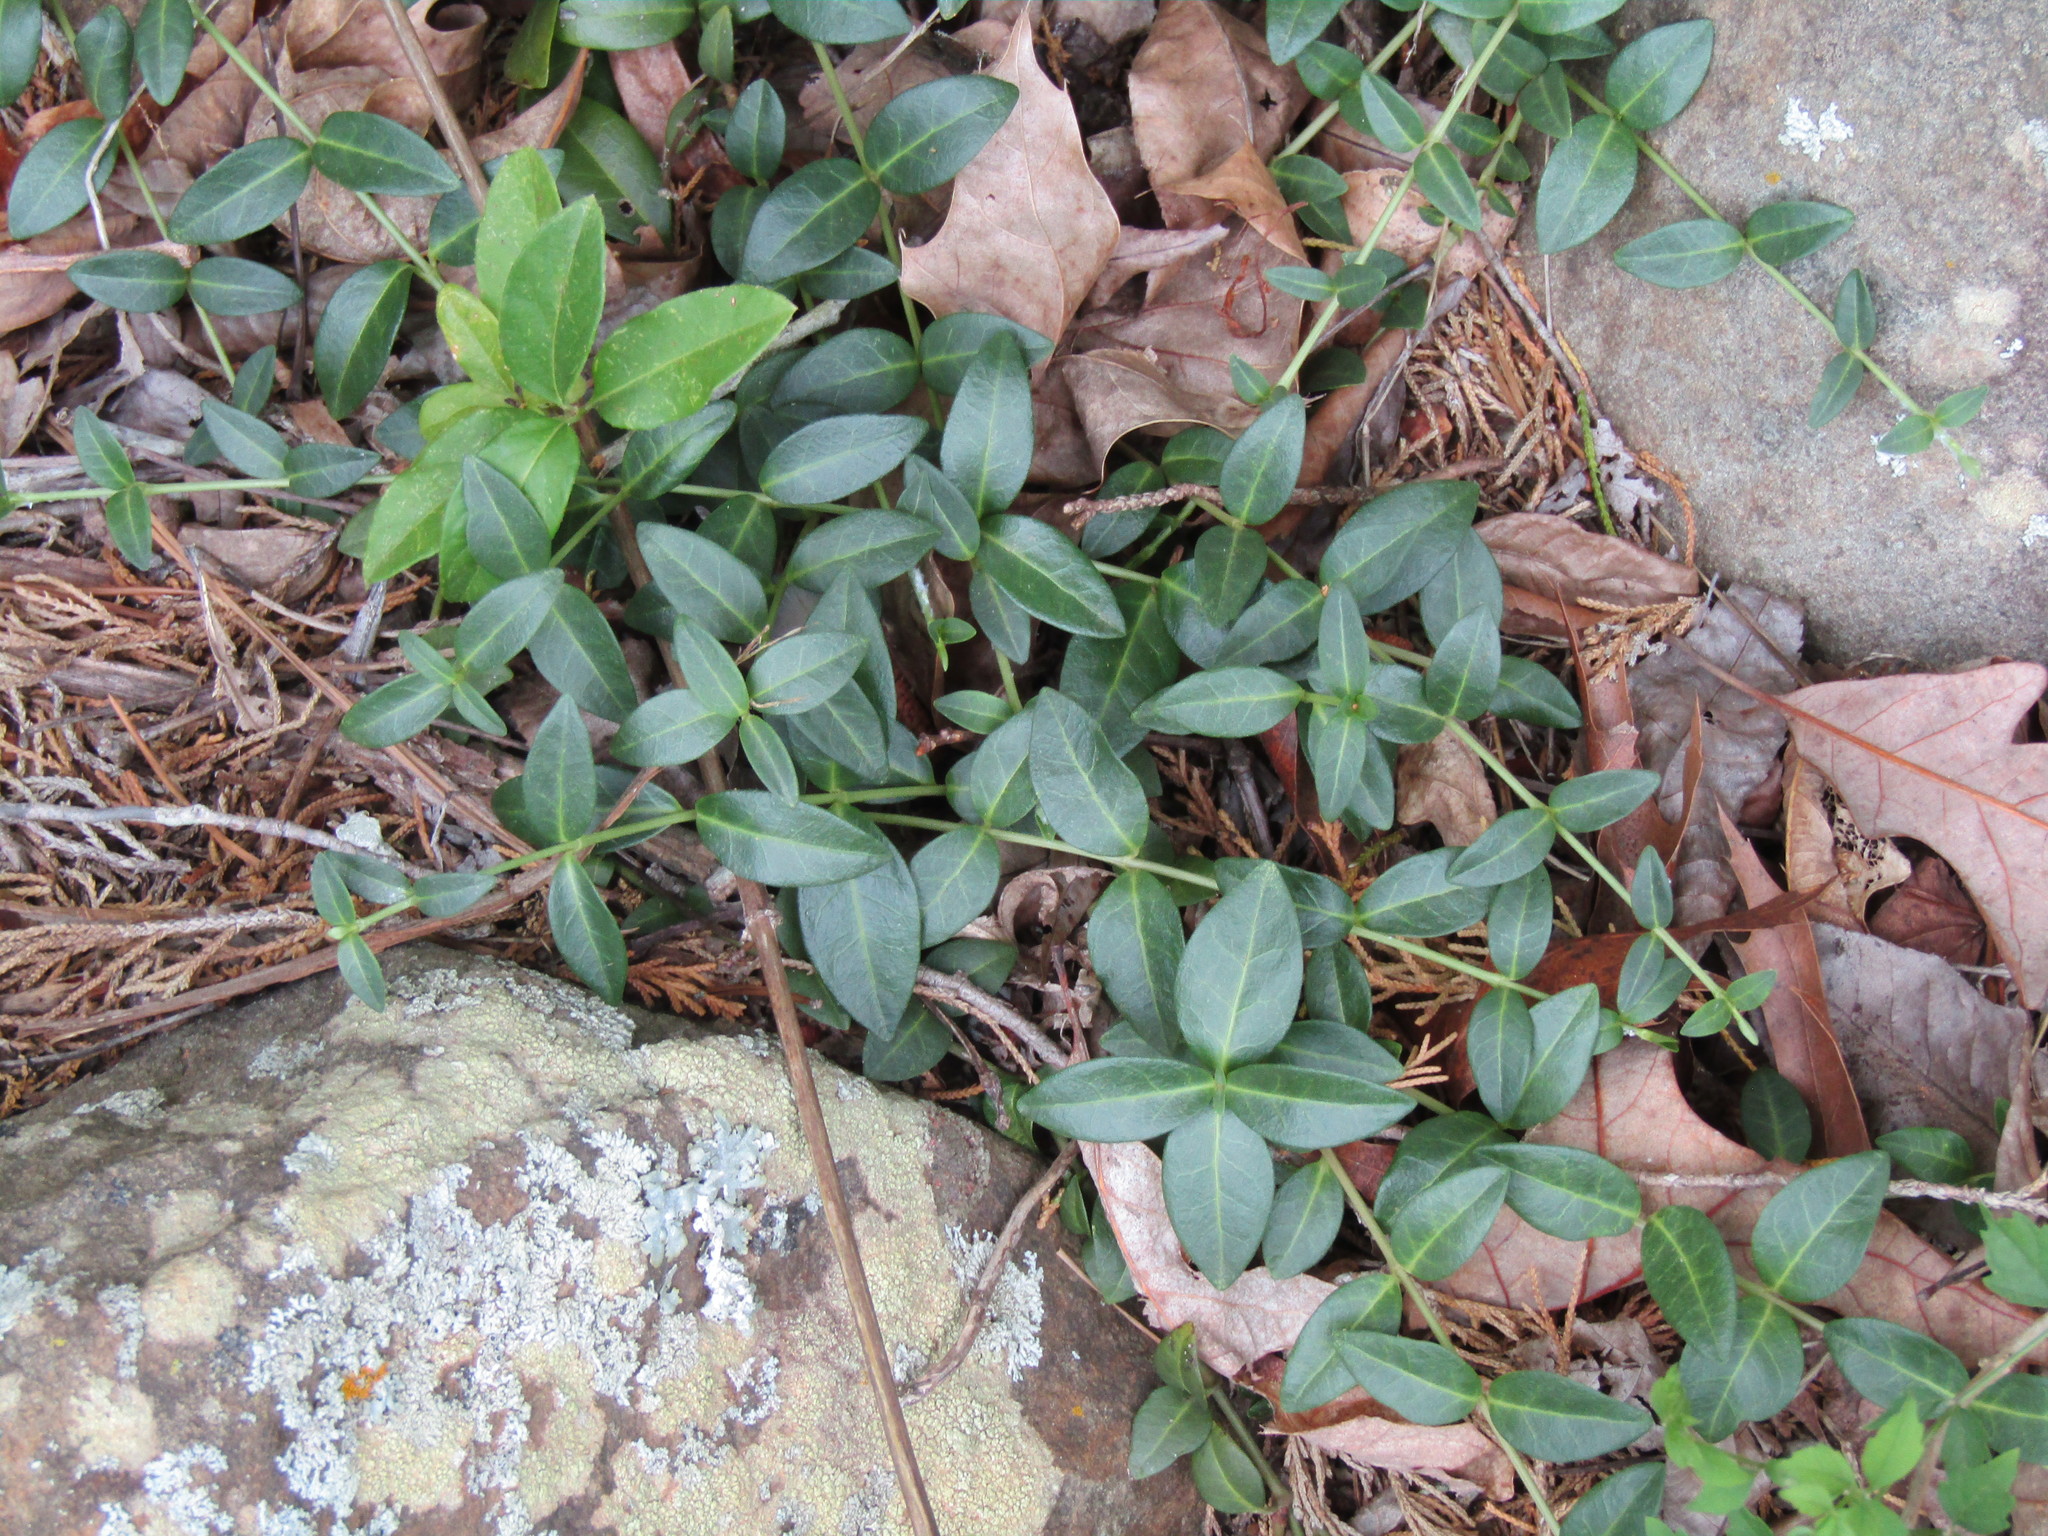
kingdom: Plantae
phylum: Tracheophyta
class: Magnoliopsida
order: Gentianales
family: Apocynaceae
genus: Vinca
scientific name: Vinca minor
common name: Lesser periwinkle
